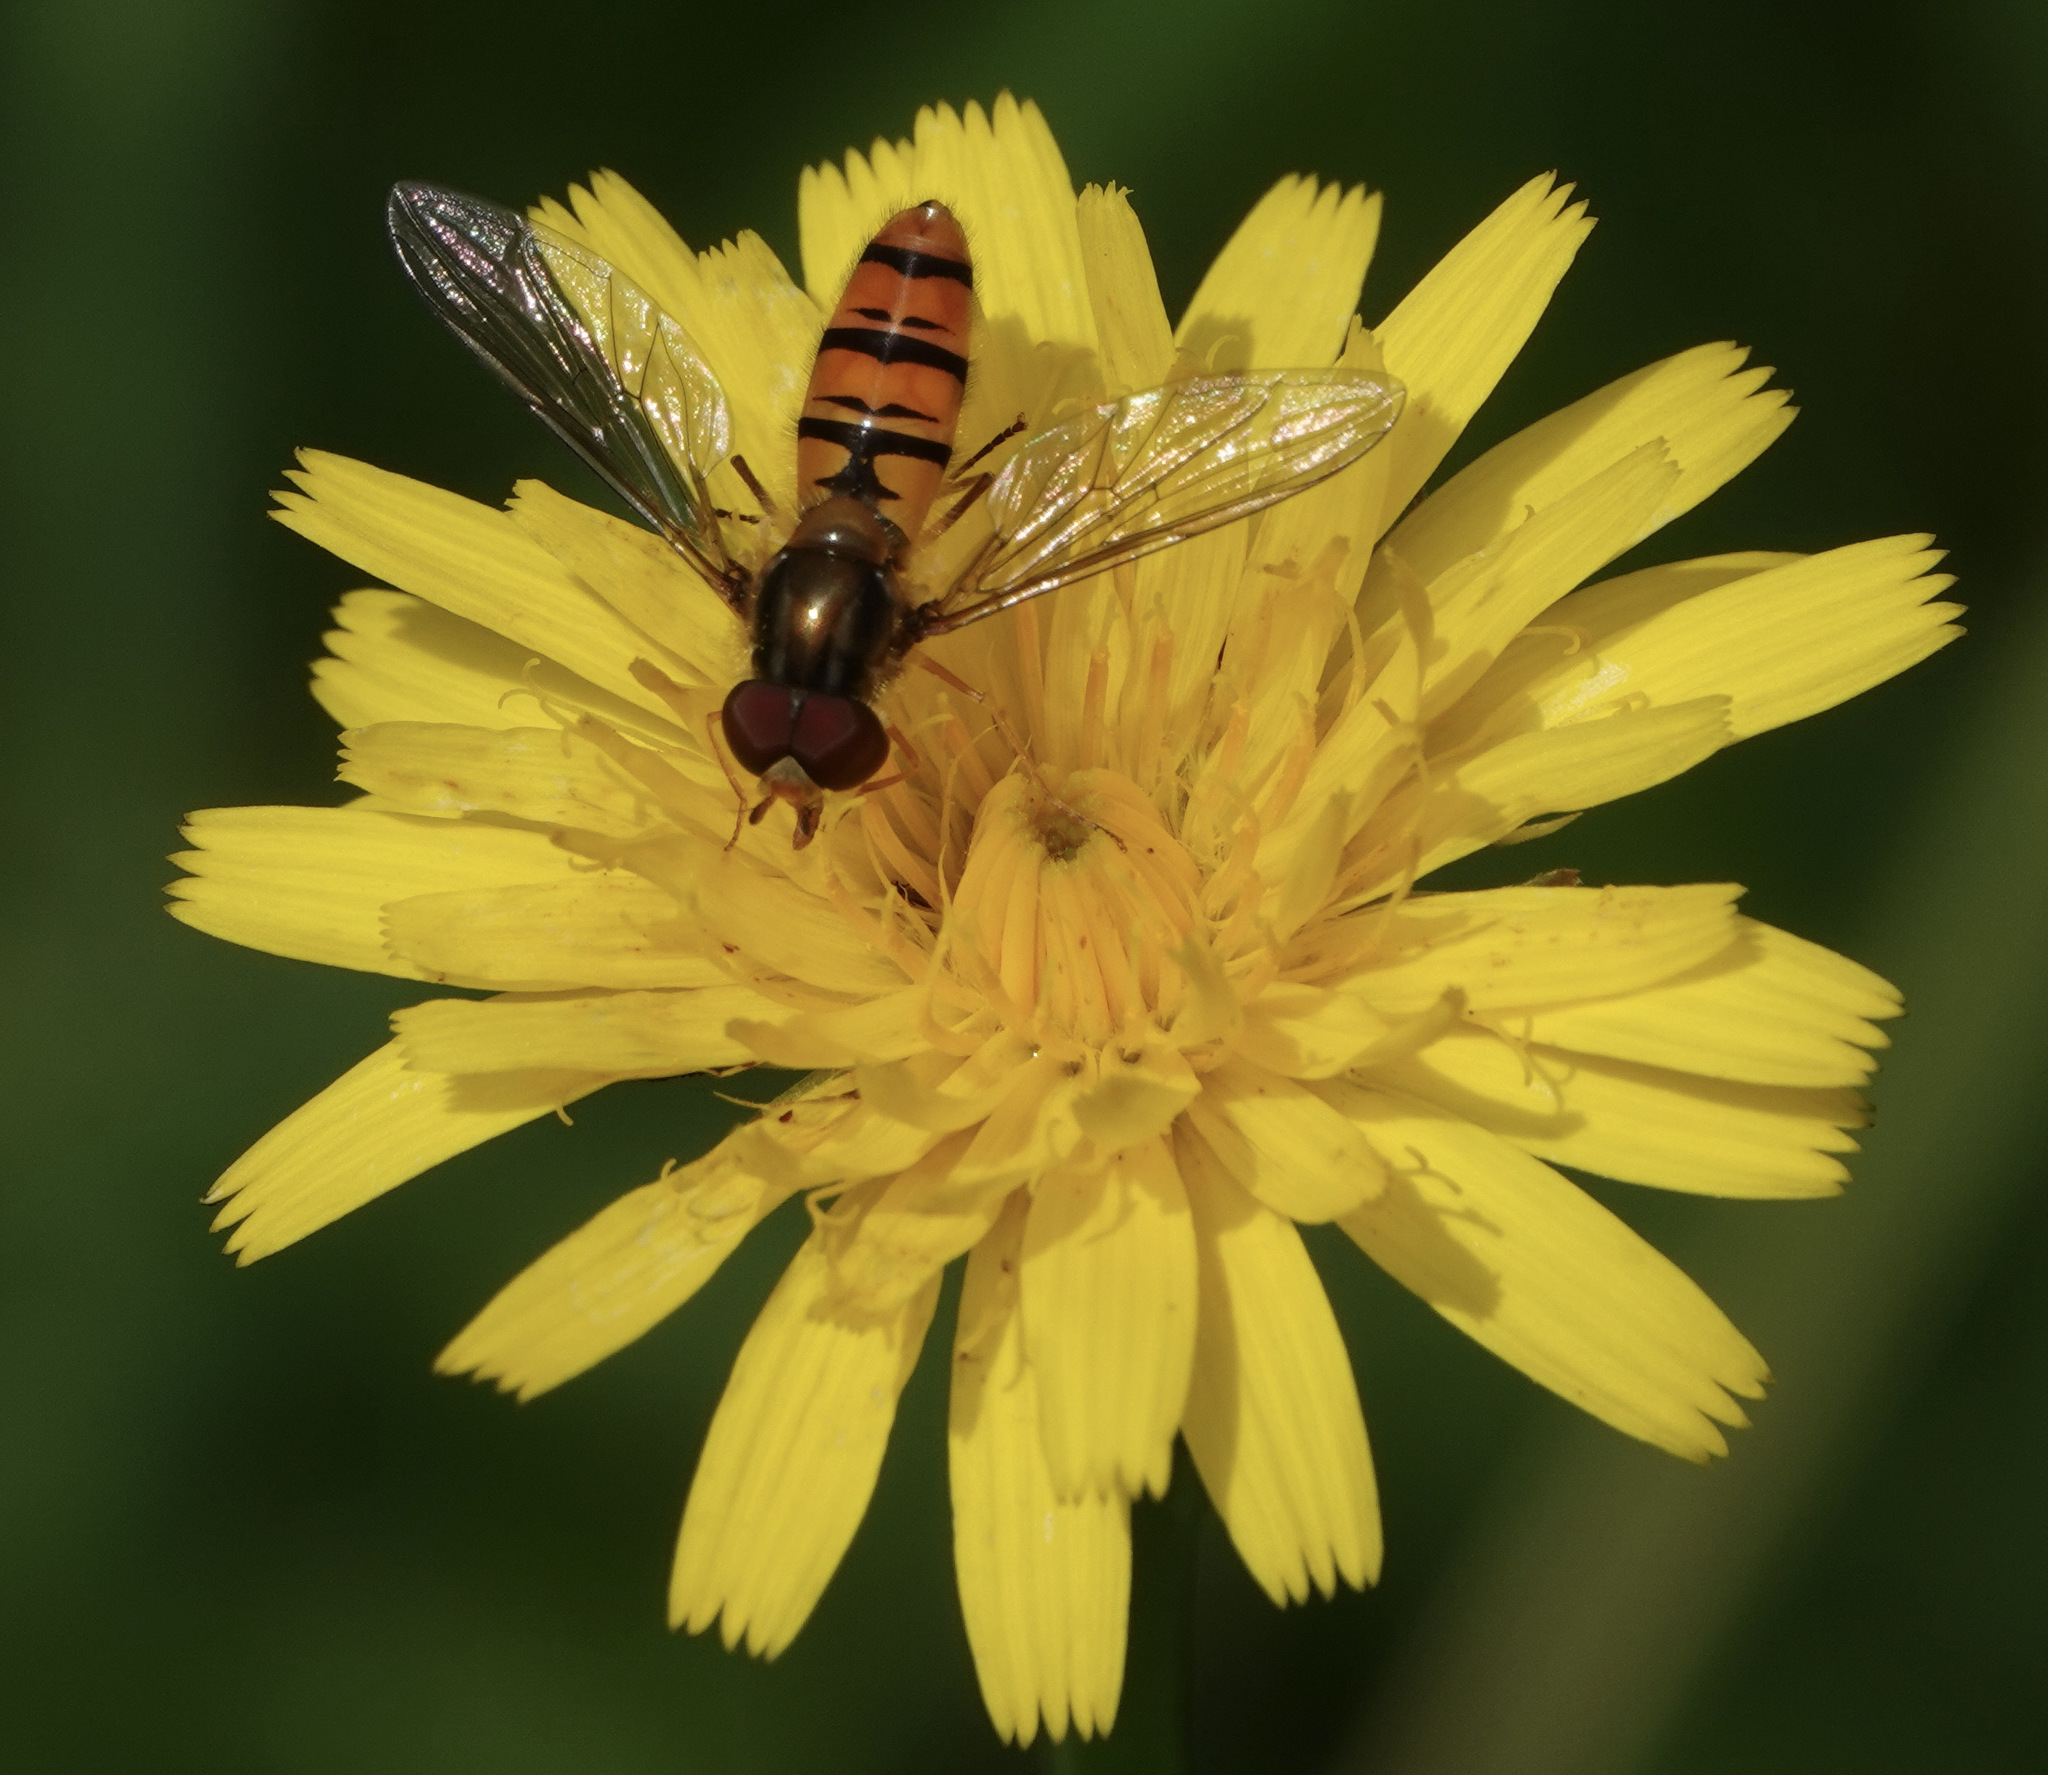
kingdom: Animalia
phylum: Arthropoda
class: Insecta
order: Diptera
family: Syrphidae
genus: Episyrphus
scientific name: Episyrphus balteatus
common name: Marmalade hoverfly
